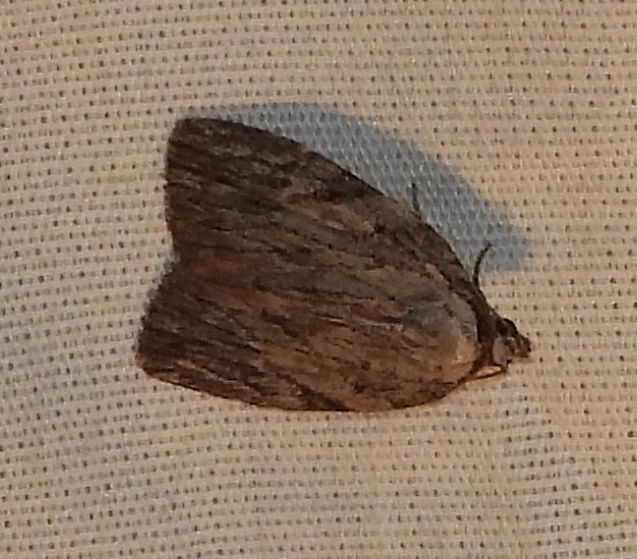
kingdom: Animalia
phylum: Arthropoda
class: Insecta
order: Lepidoptera
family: Noctuidae
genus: Balsa
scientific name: Balsa tristrigella
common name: Three-lined balsa moth
